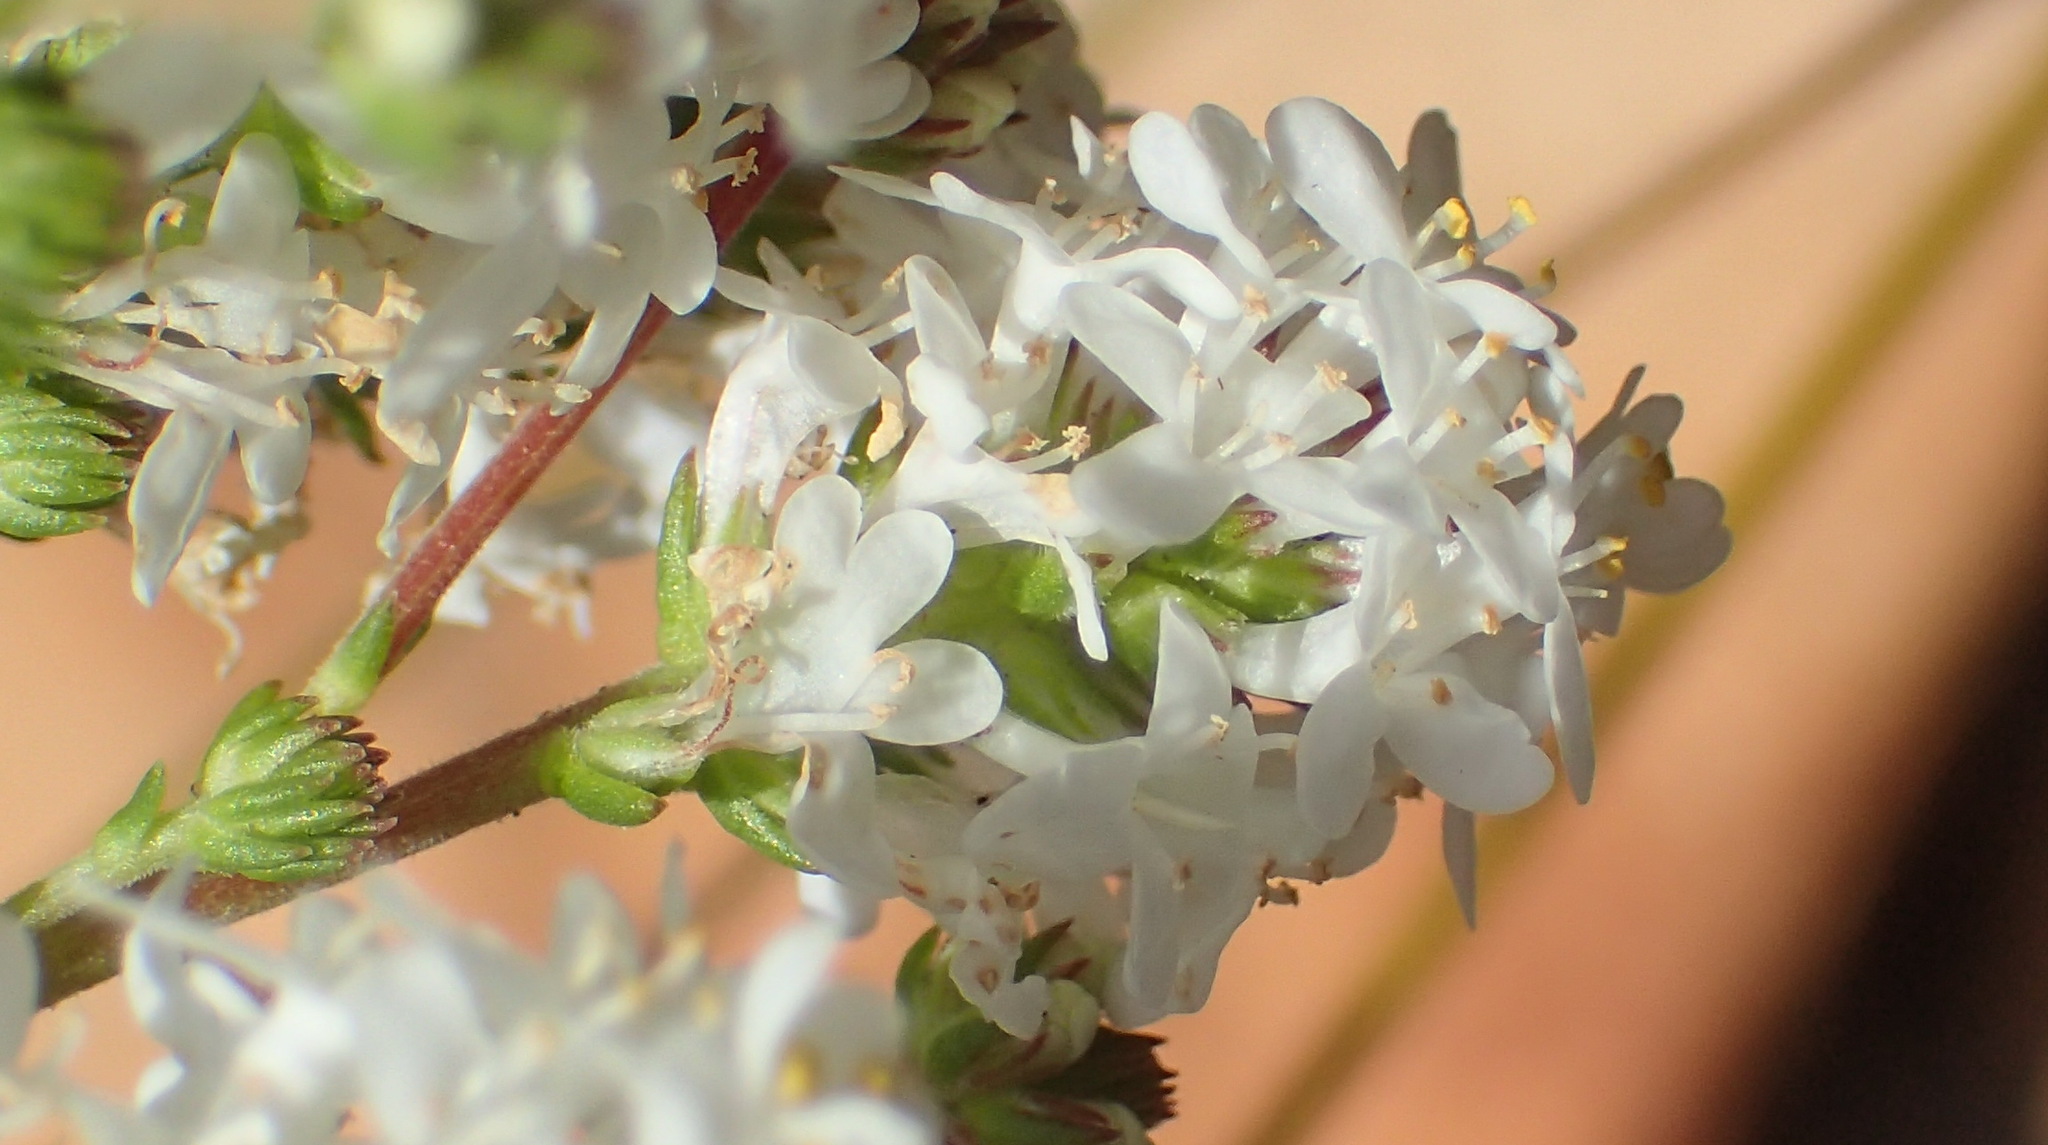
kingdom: Plantae
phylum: Tracheophyta
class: Magnoliopsida
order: Lamiales
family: Scrophulariaceae
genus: Selago
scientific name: Selago karooica
